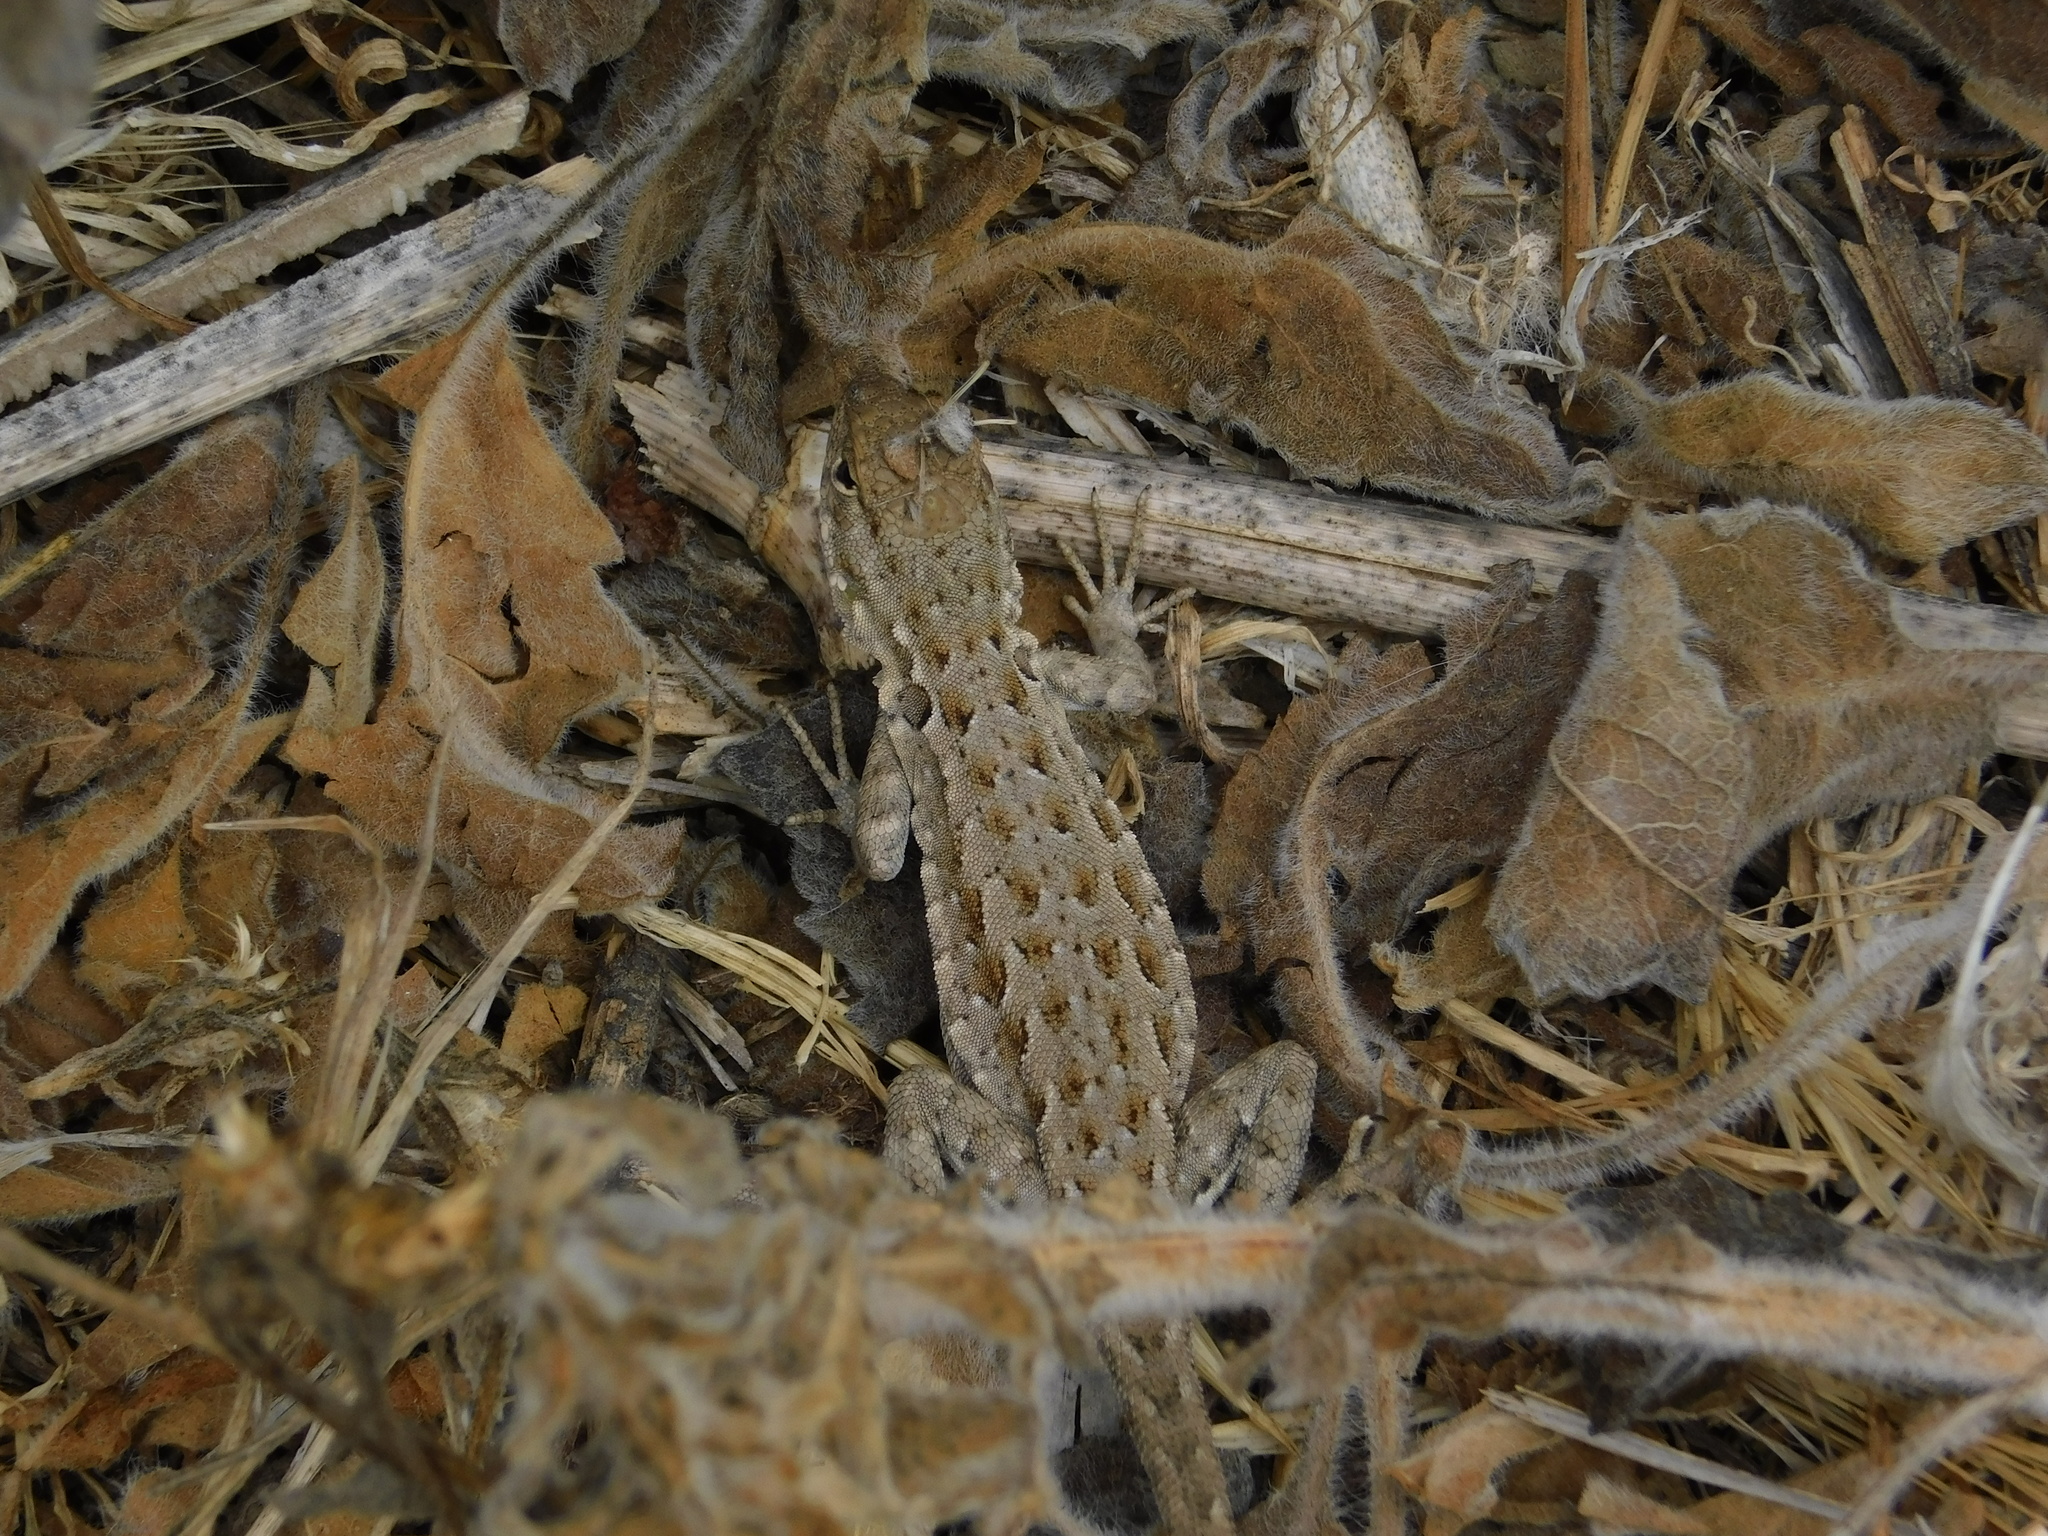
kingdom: Animalia
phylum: Chordata
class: Squamata
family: Phrynosomatidae
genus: Uta
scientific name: Uta stansburiana
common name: Side-blotched lizard
